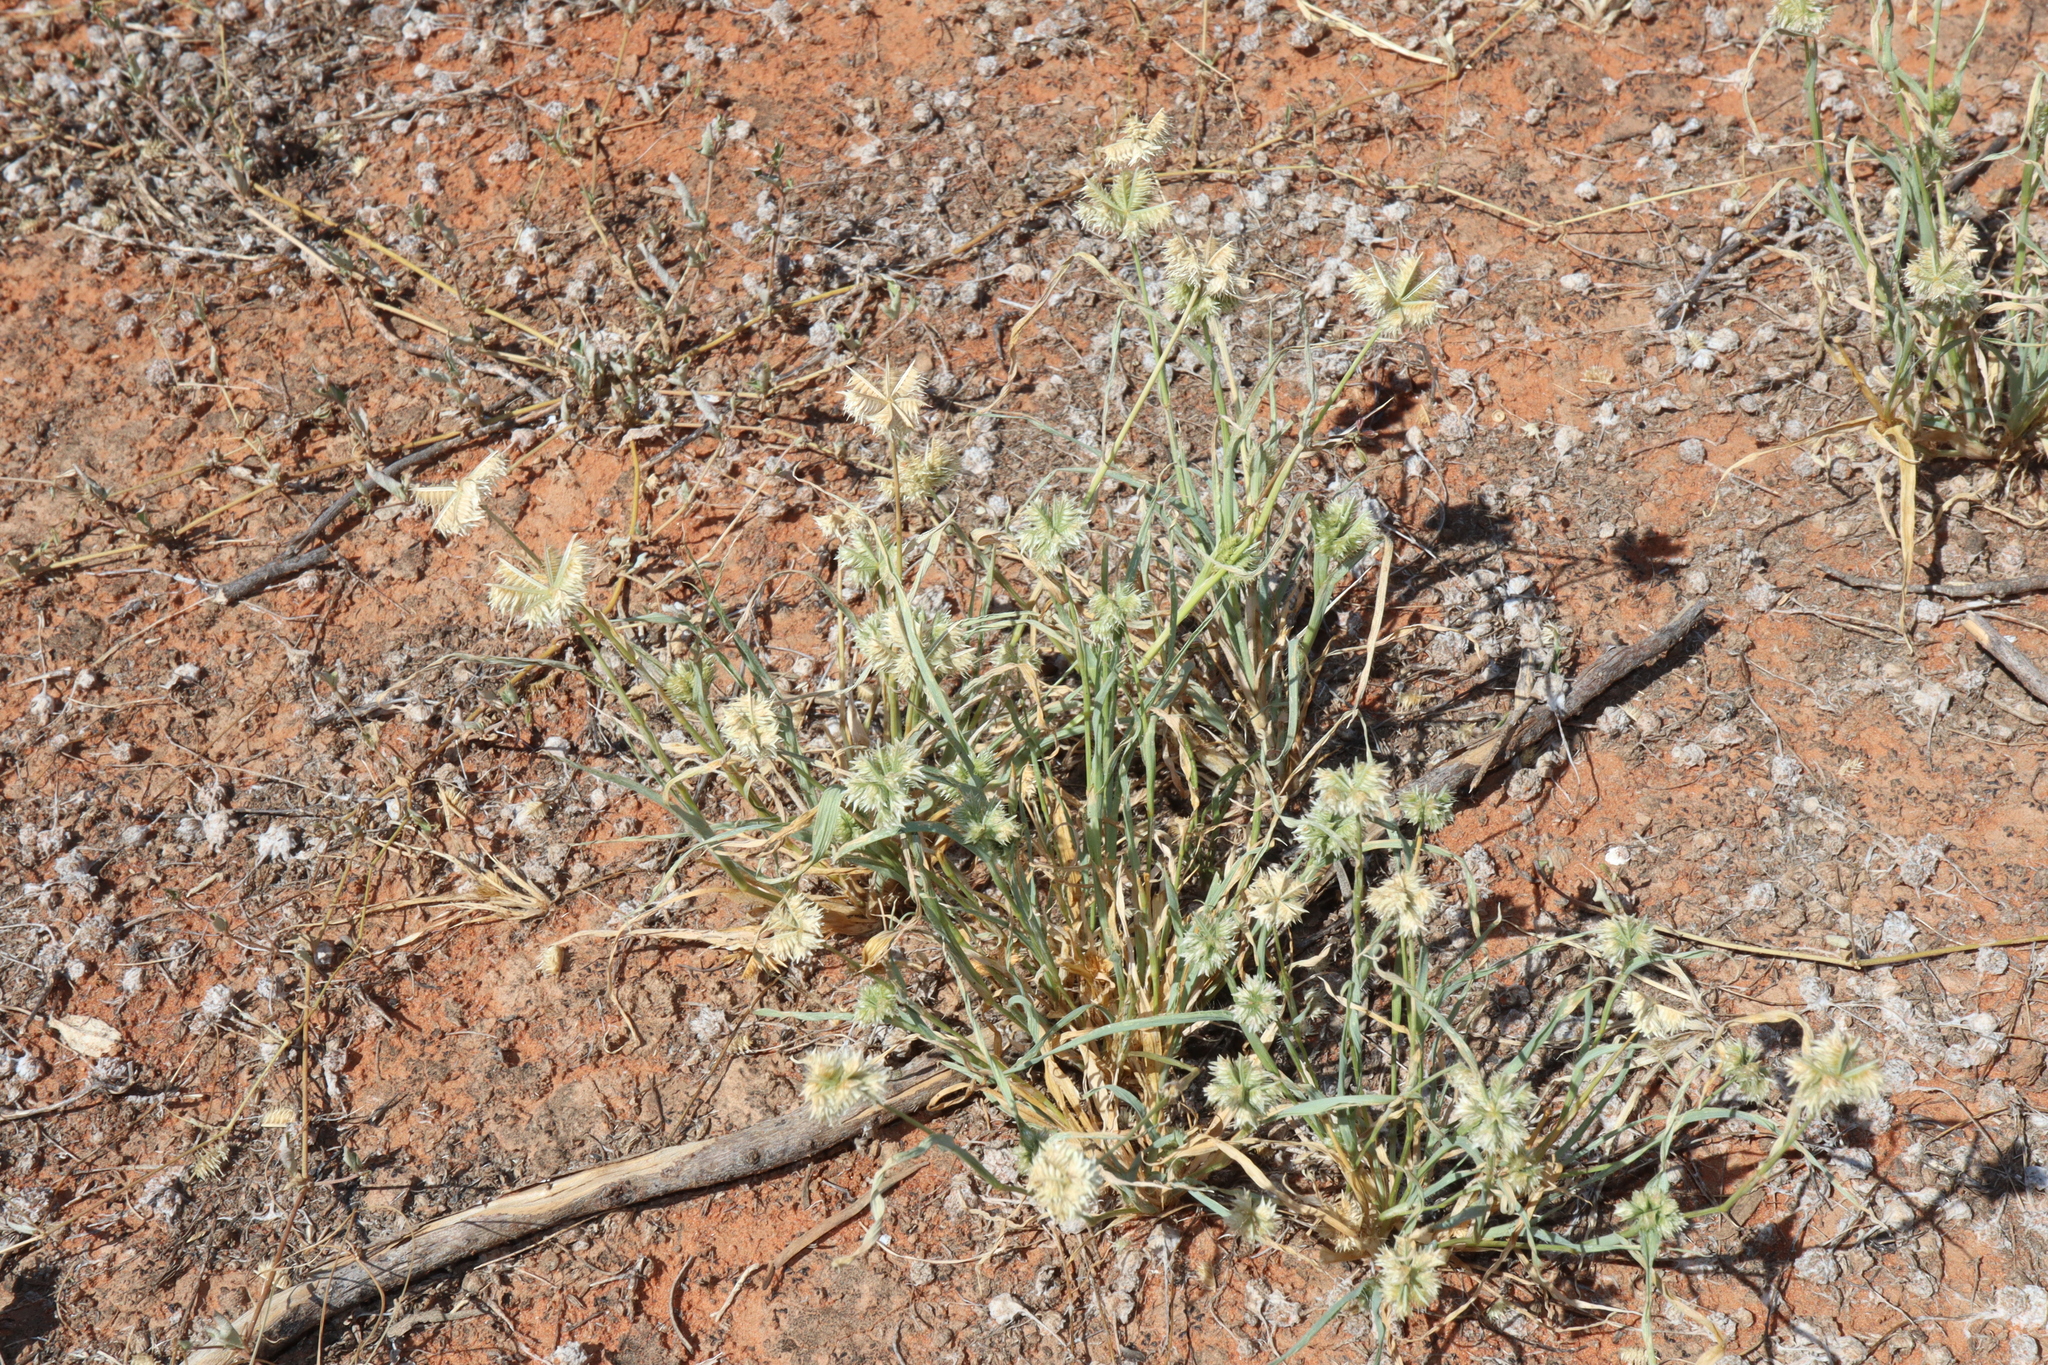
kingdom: Plantae
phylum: Tracheophyta
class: Liliopsida
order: Poales
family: Poaceae
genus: Dactyloctenium
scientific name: Dactyloctenium radulans
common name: Button-grass
